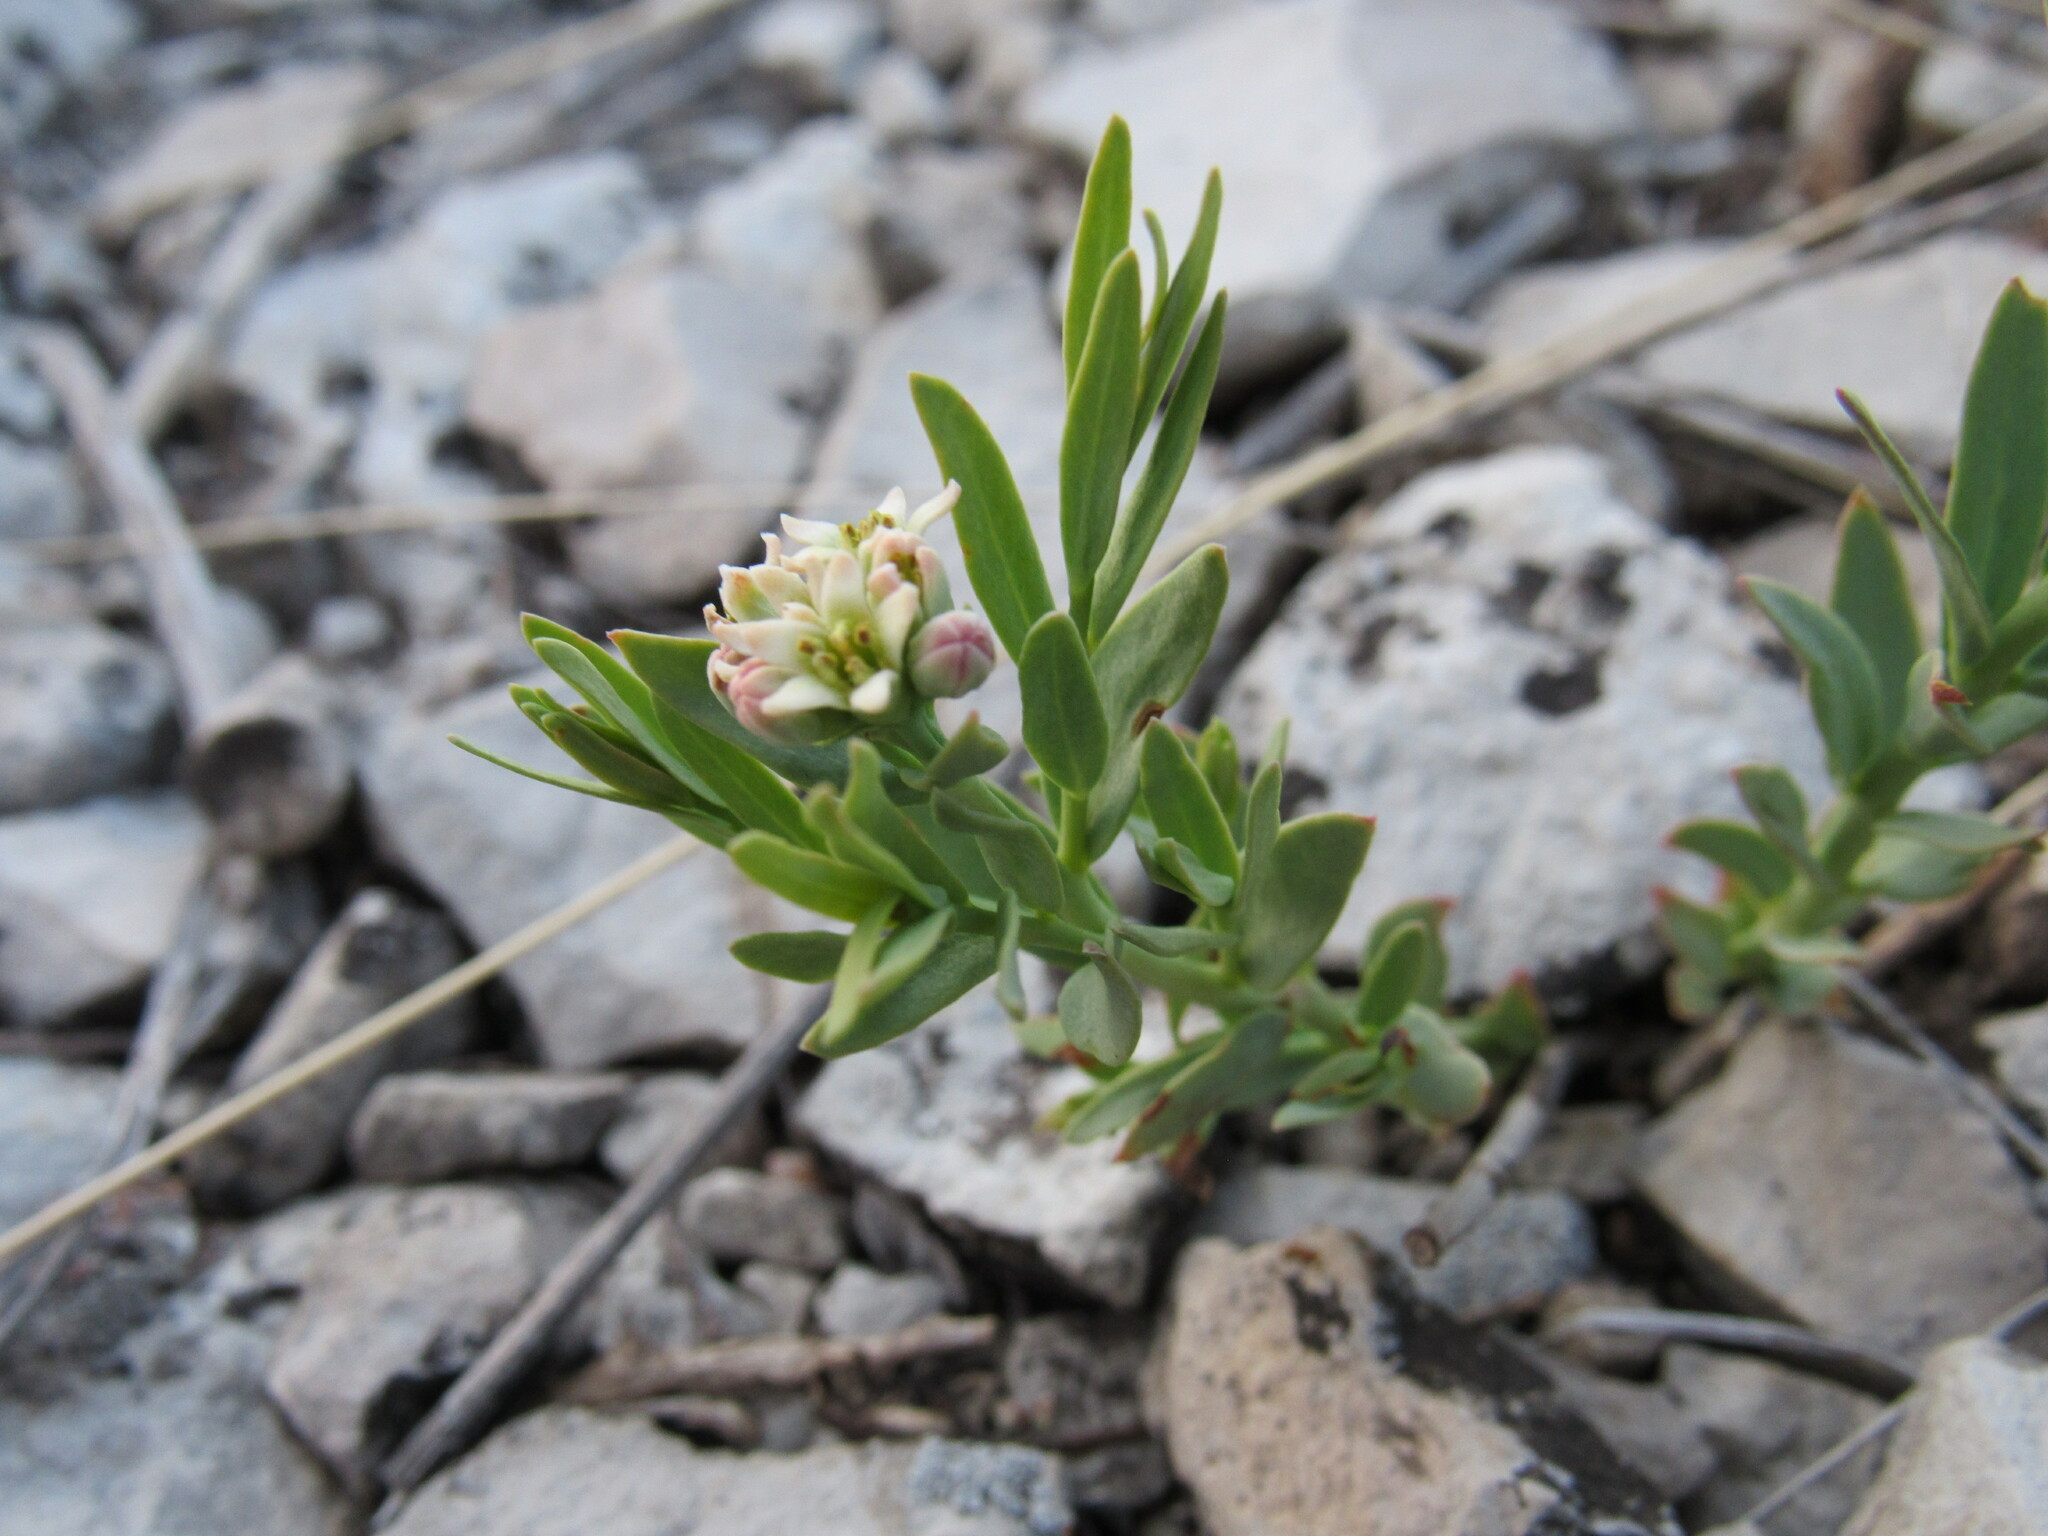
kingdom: Plantae
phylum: Tracheophyta
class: Magnoliopsida
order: Santalales
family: Comandraceae
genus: Comandra
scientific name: Comandra umbellata
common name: Bastard toadflax
